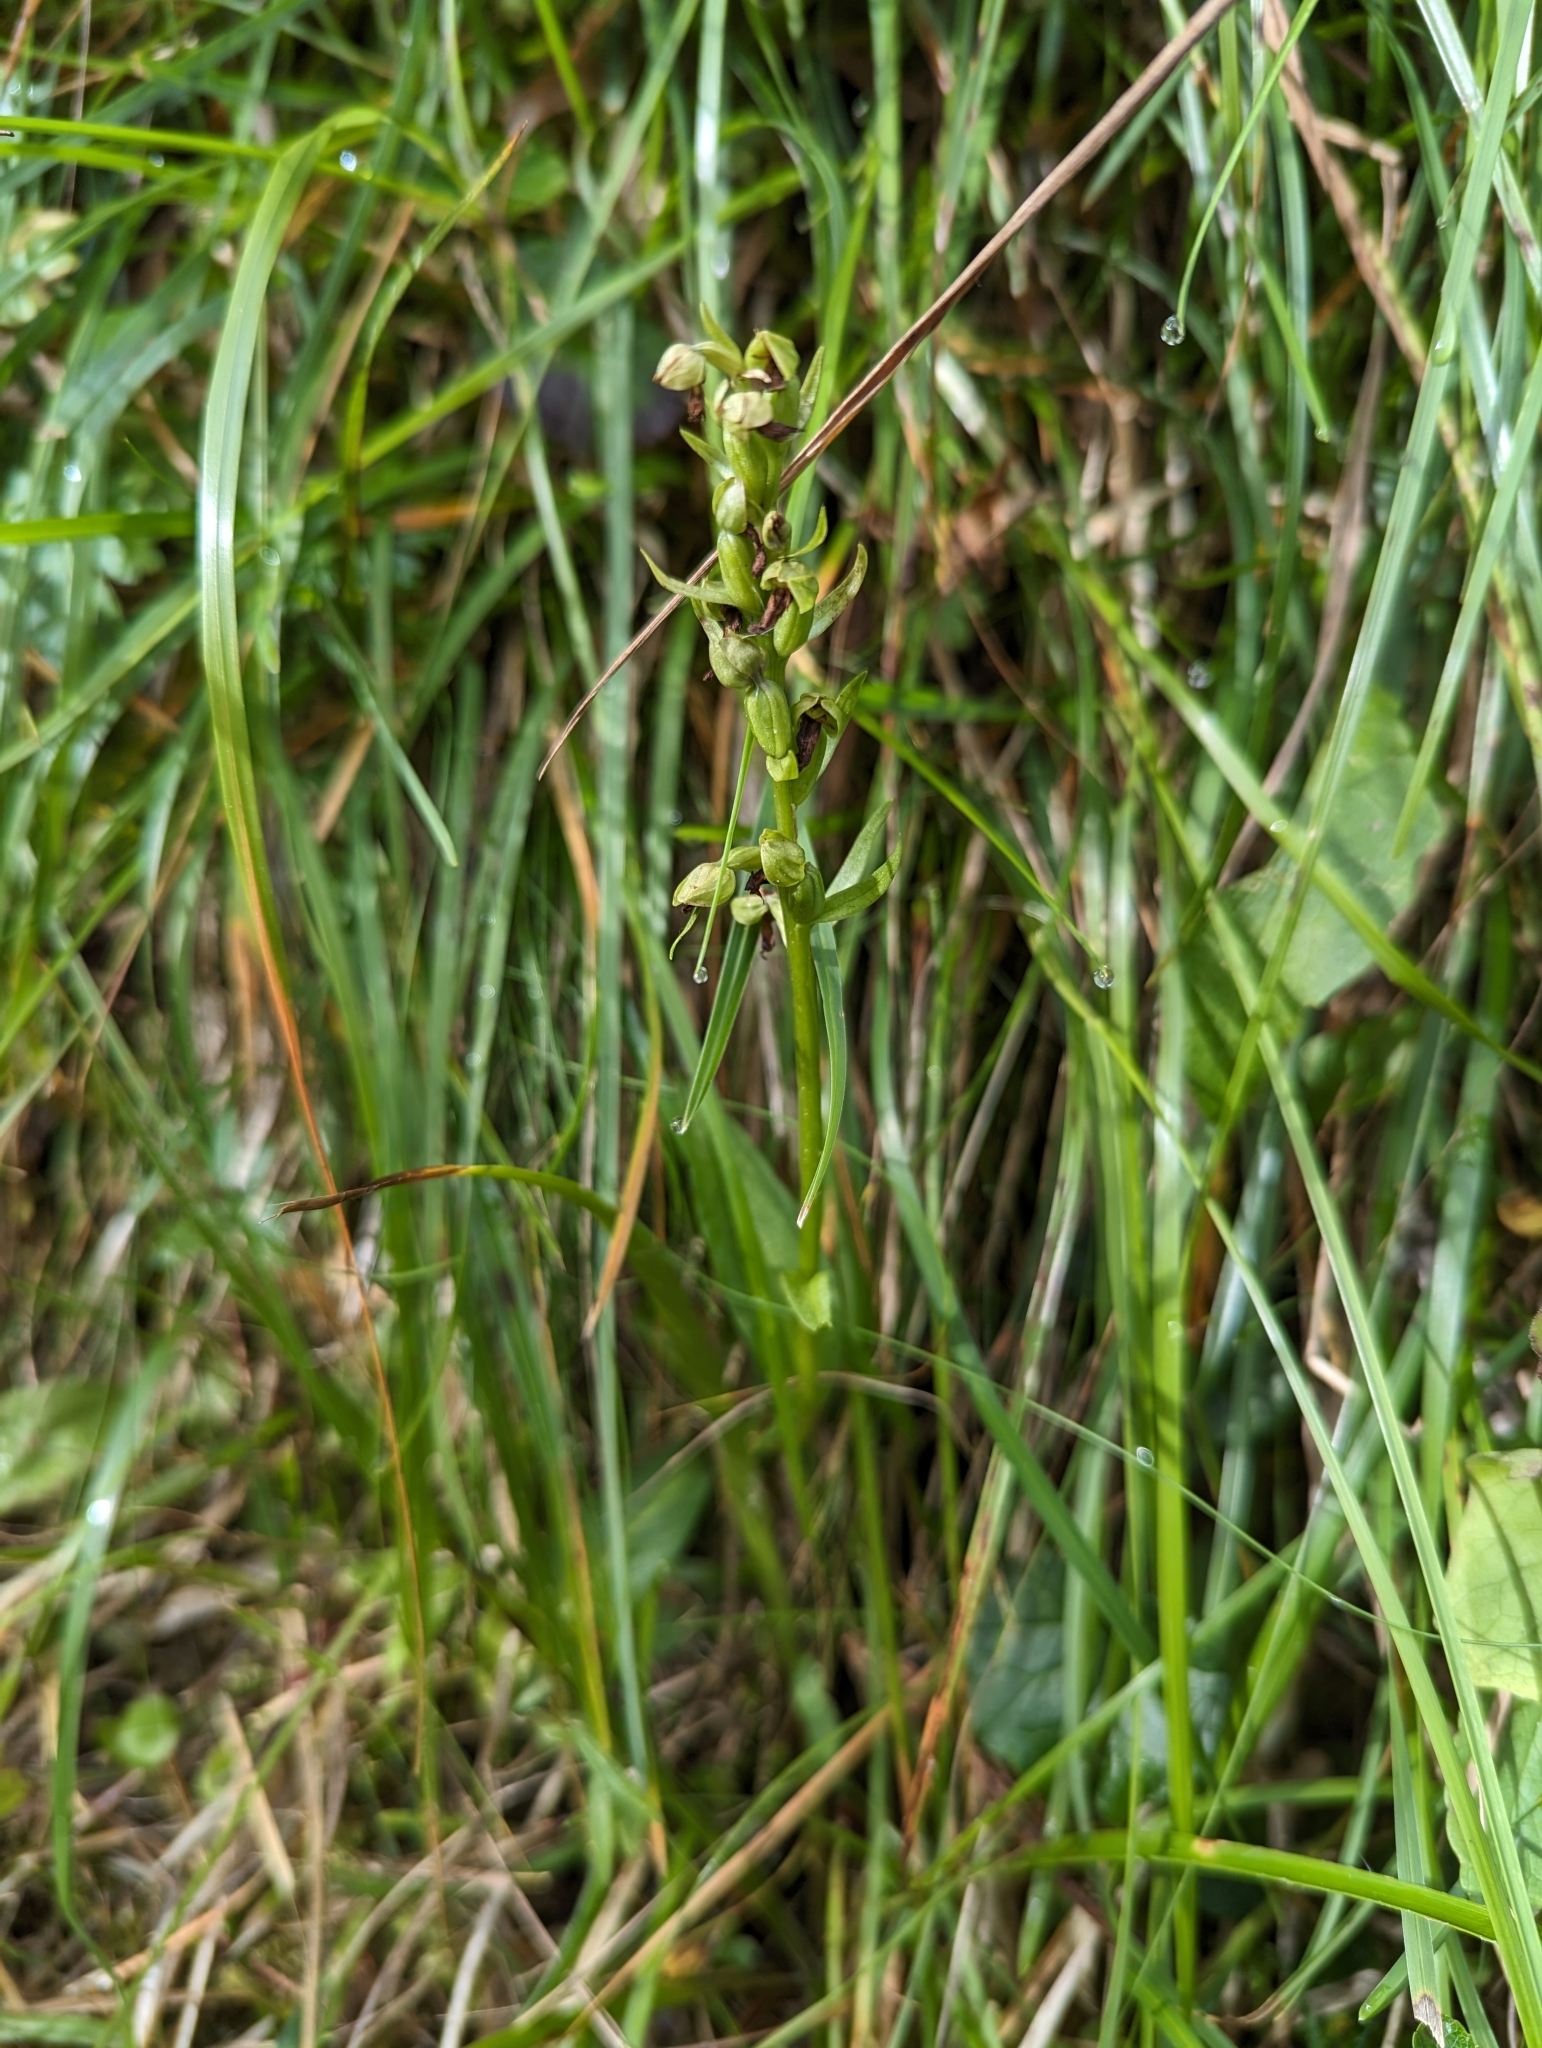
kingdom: Plantae
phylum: Tracheophyta
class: Liliopsida
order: Asparagales
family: Orchidaceae
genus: Dactylorhiza
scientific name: Dactylorhiza viridis
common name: Longbract frog orchid
